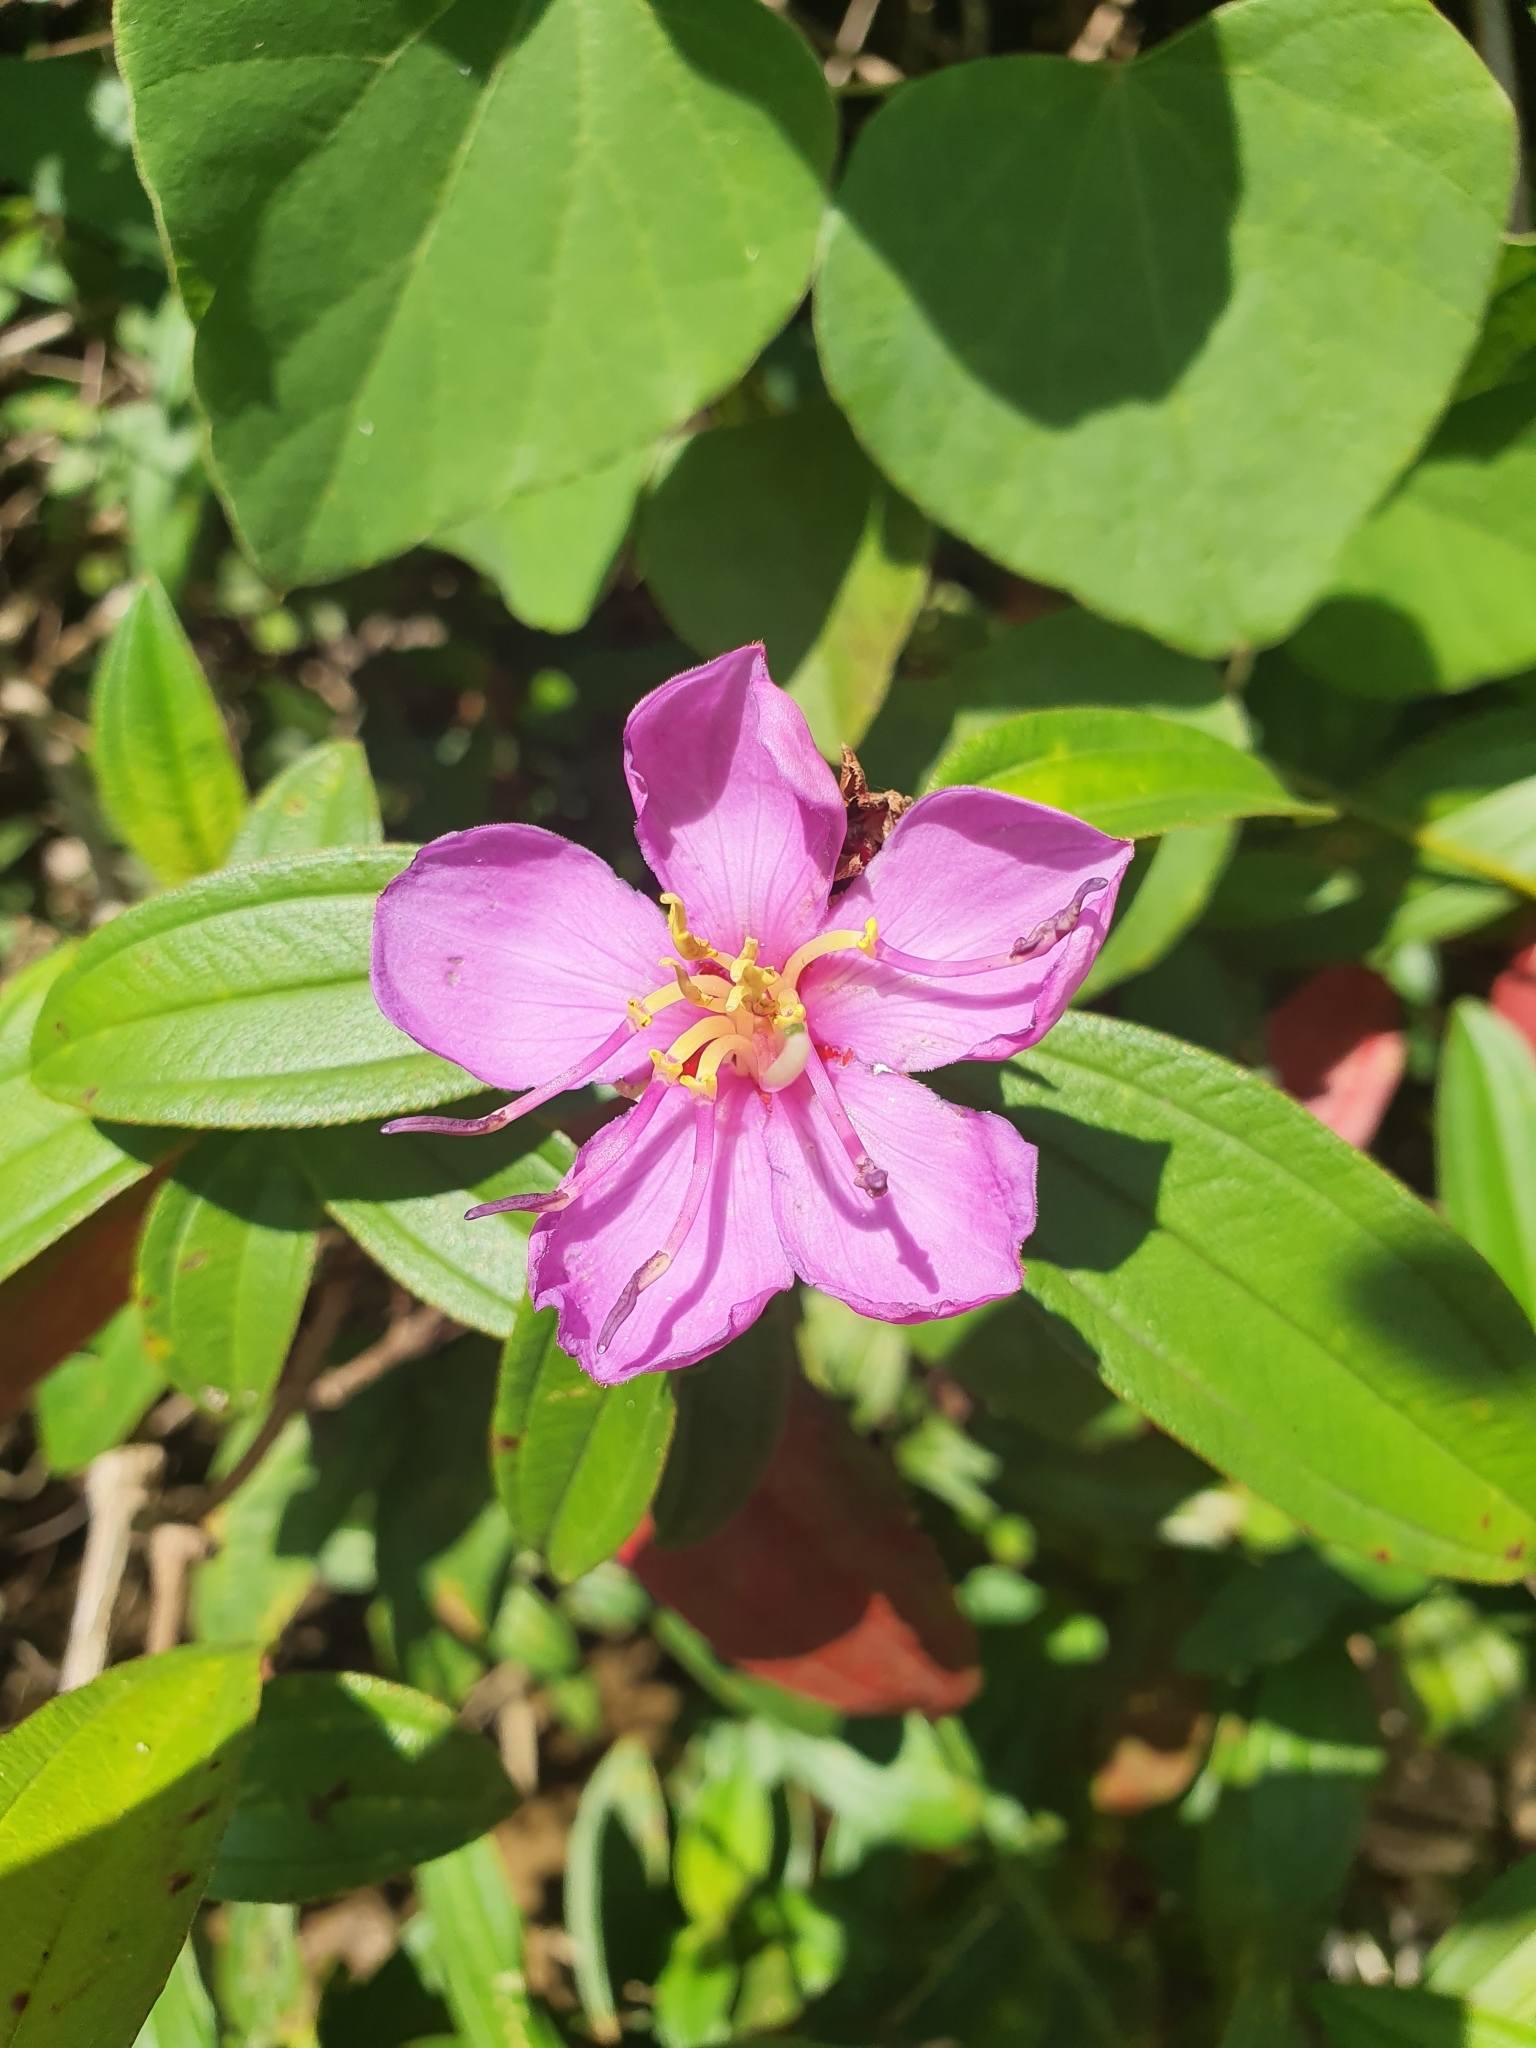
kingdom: Plantae
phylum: Tracheophyta
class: Magnoliopsida
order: Myrtales
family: Melastomataceae
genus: Melastoma
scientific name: Melastoma malabathricum
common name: Indian-rhododendron
